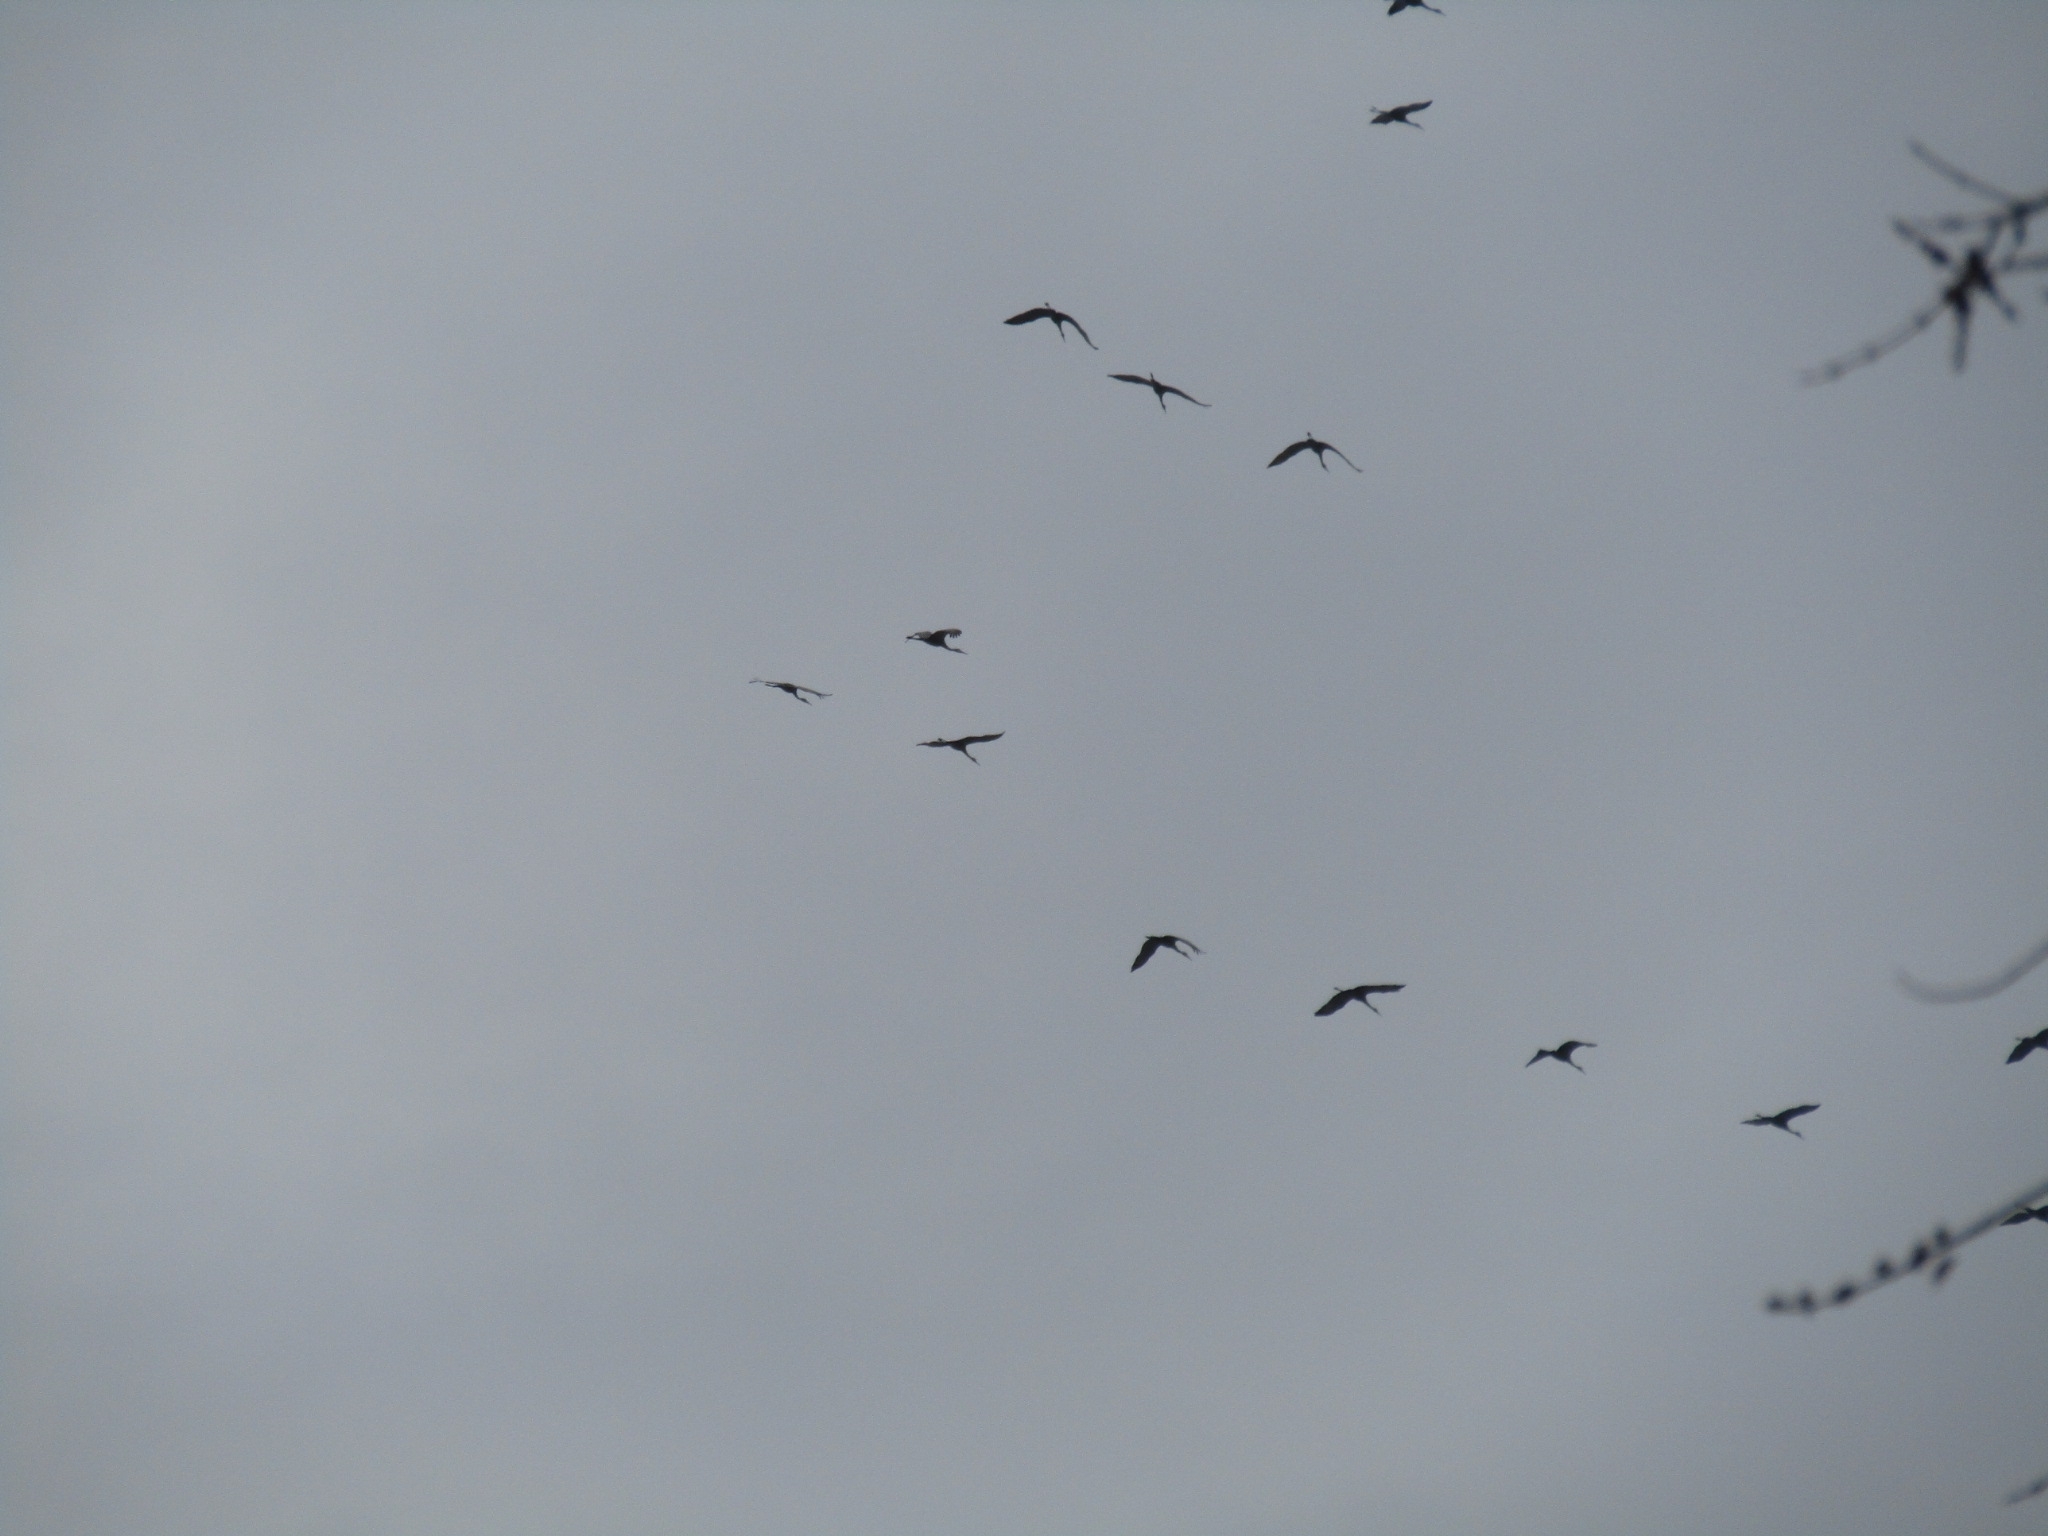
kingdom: Animalia
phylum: Chordata
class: Aves
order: Gruiformes
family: Gruidae
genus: Grus
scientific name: Grus canadensis
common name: Sandhill crane
